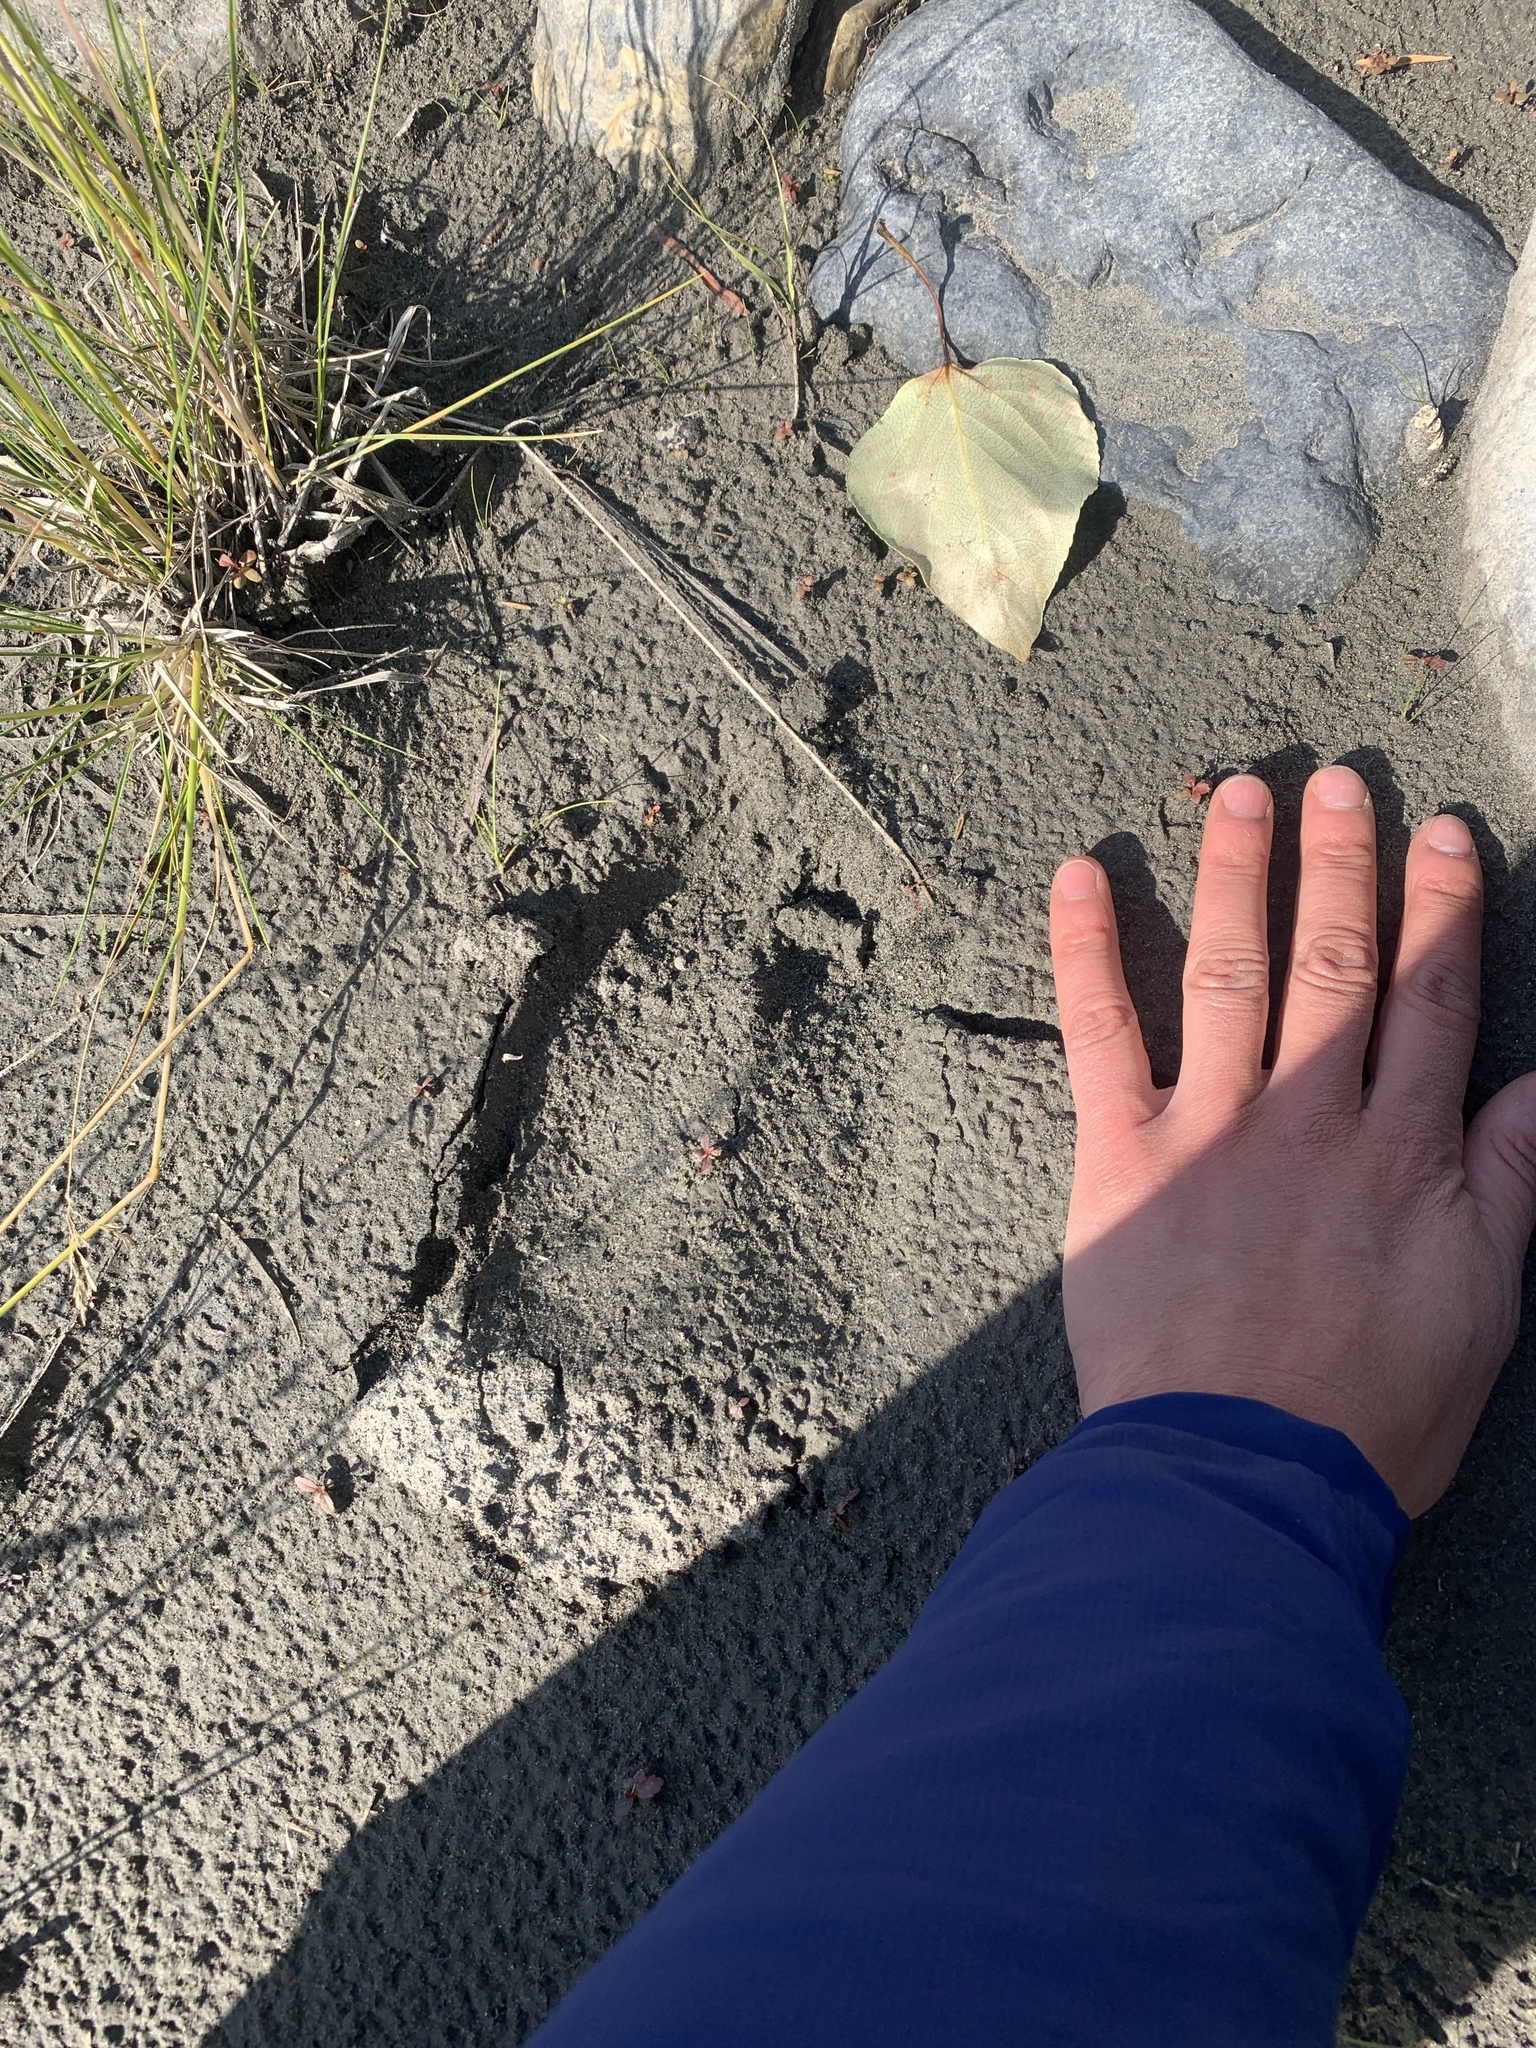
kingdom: Animalia
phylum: Chordata
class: Mammalia
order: Artiodactyla
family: Cervidae
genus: Alces
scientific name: Alces alces
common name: Moose
